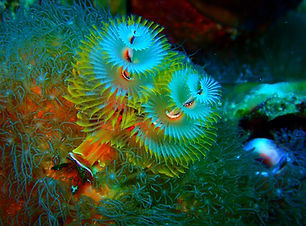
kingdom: Animalia
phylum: Annelida
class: Polychaeta
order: Sabellida
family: Serpulidae
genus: Spirobranchus
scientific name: Spirobranchus giganteus
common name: Christmas tree worm
